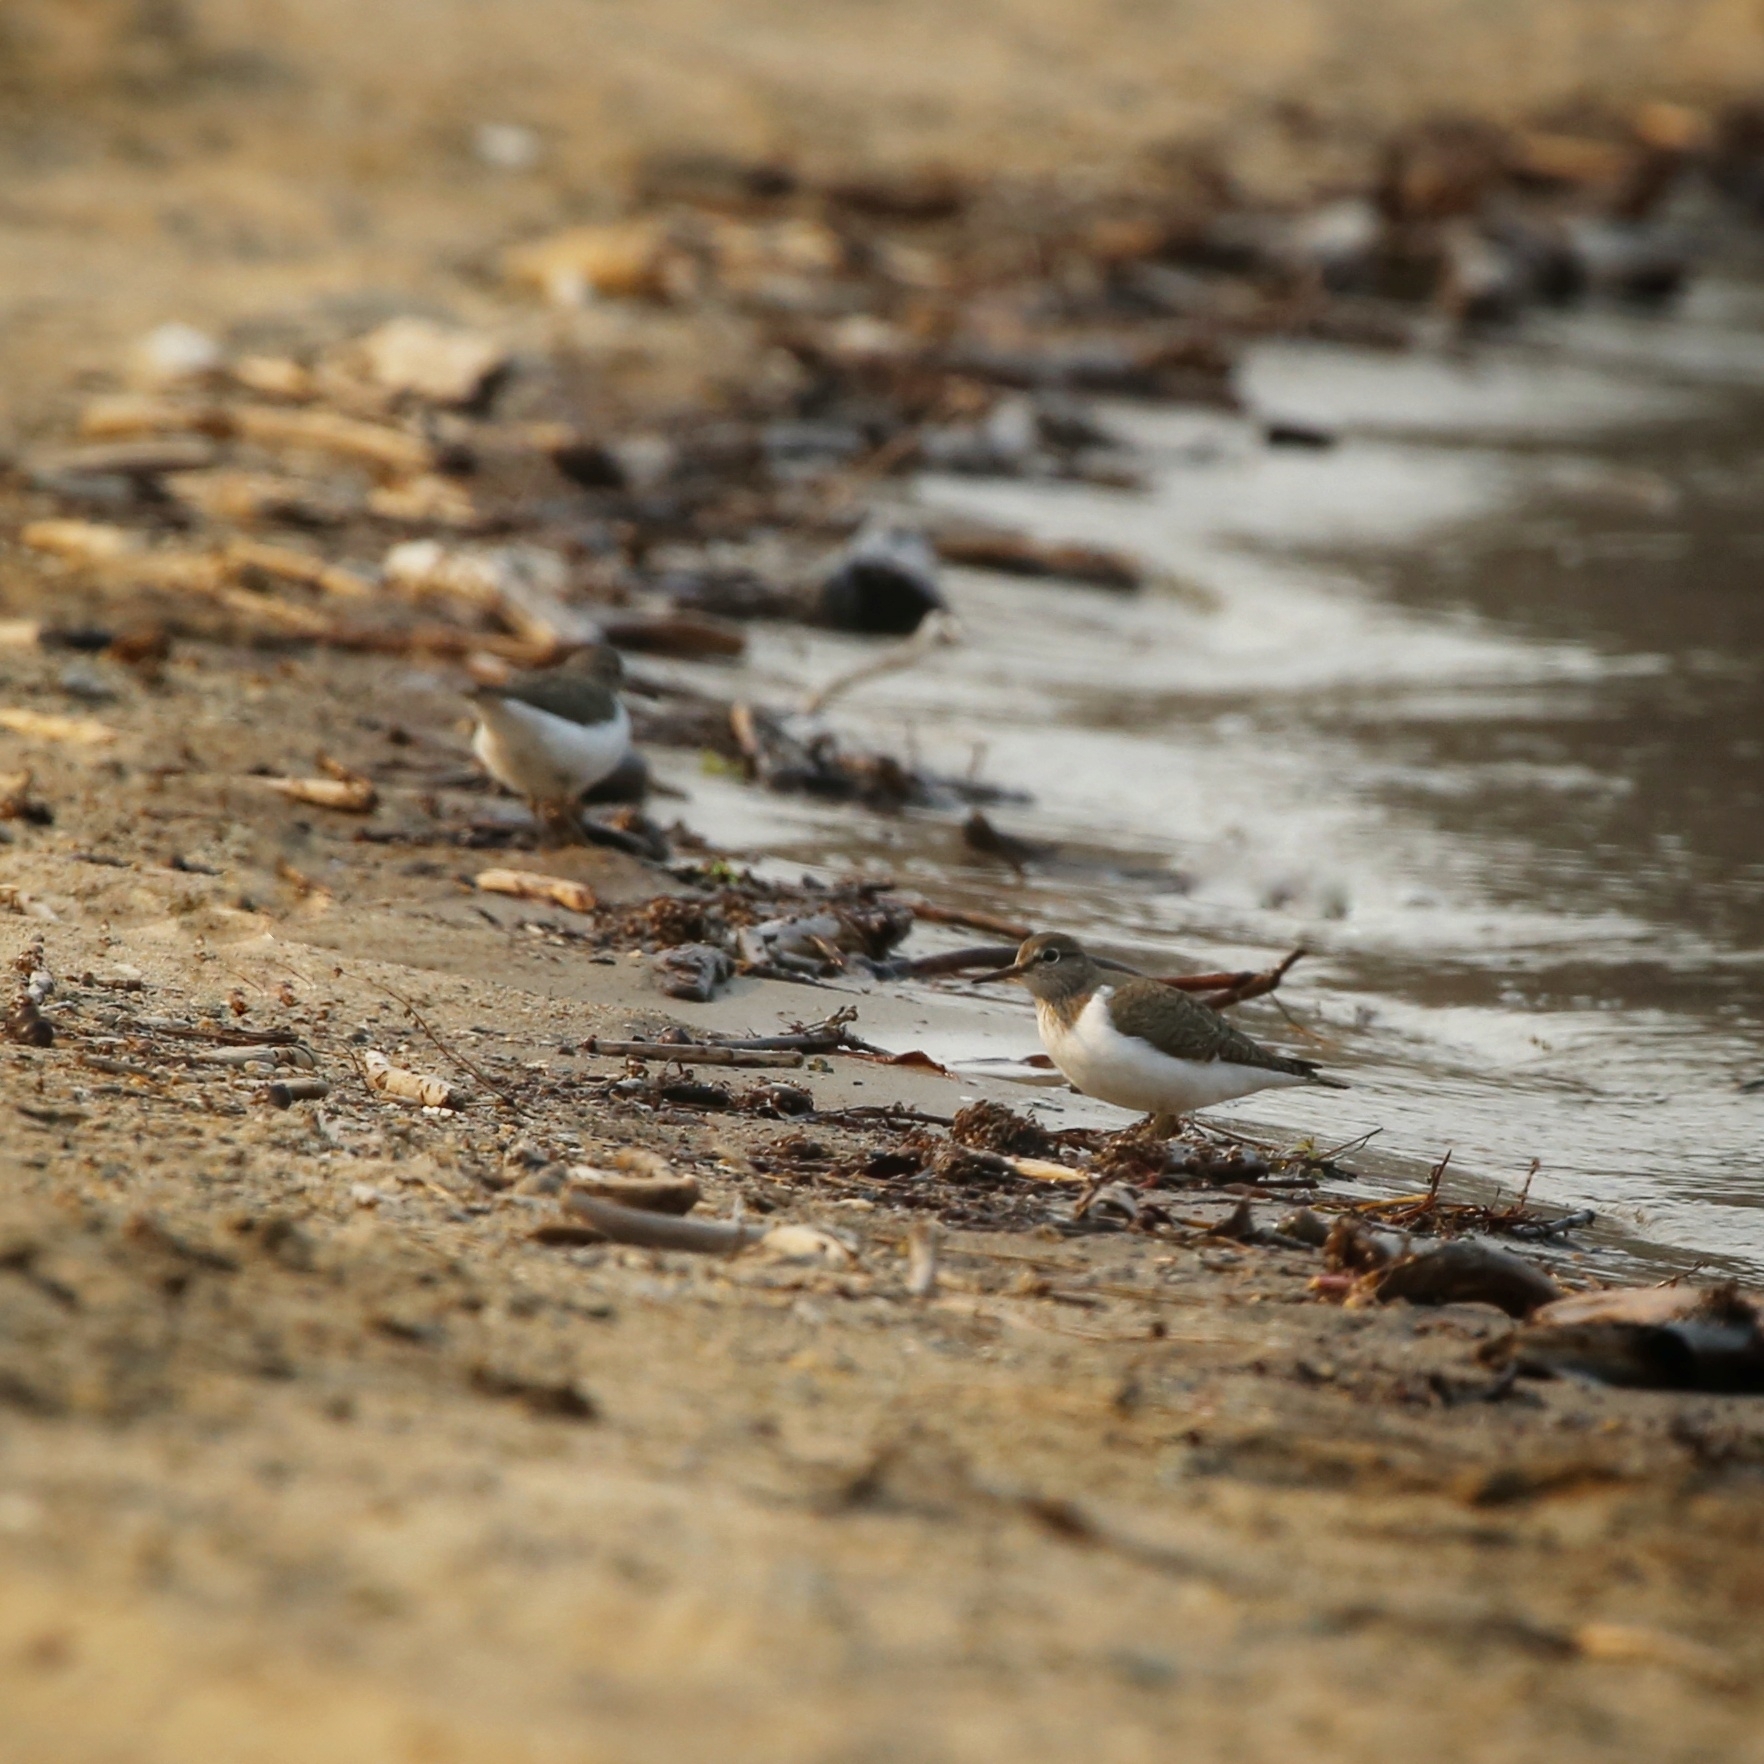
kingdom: Animalia
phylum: Chordata
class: Aves
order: Charadriiformes
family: Scolopacidae
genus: Actitis
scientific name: Actitis hypoleucos
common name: Common sandpiper
